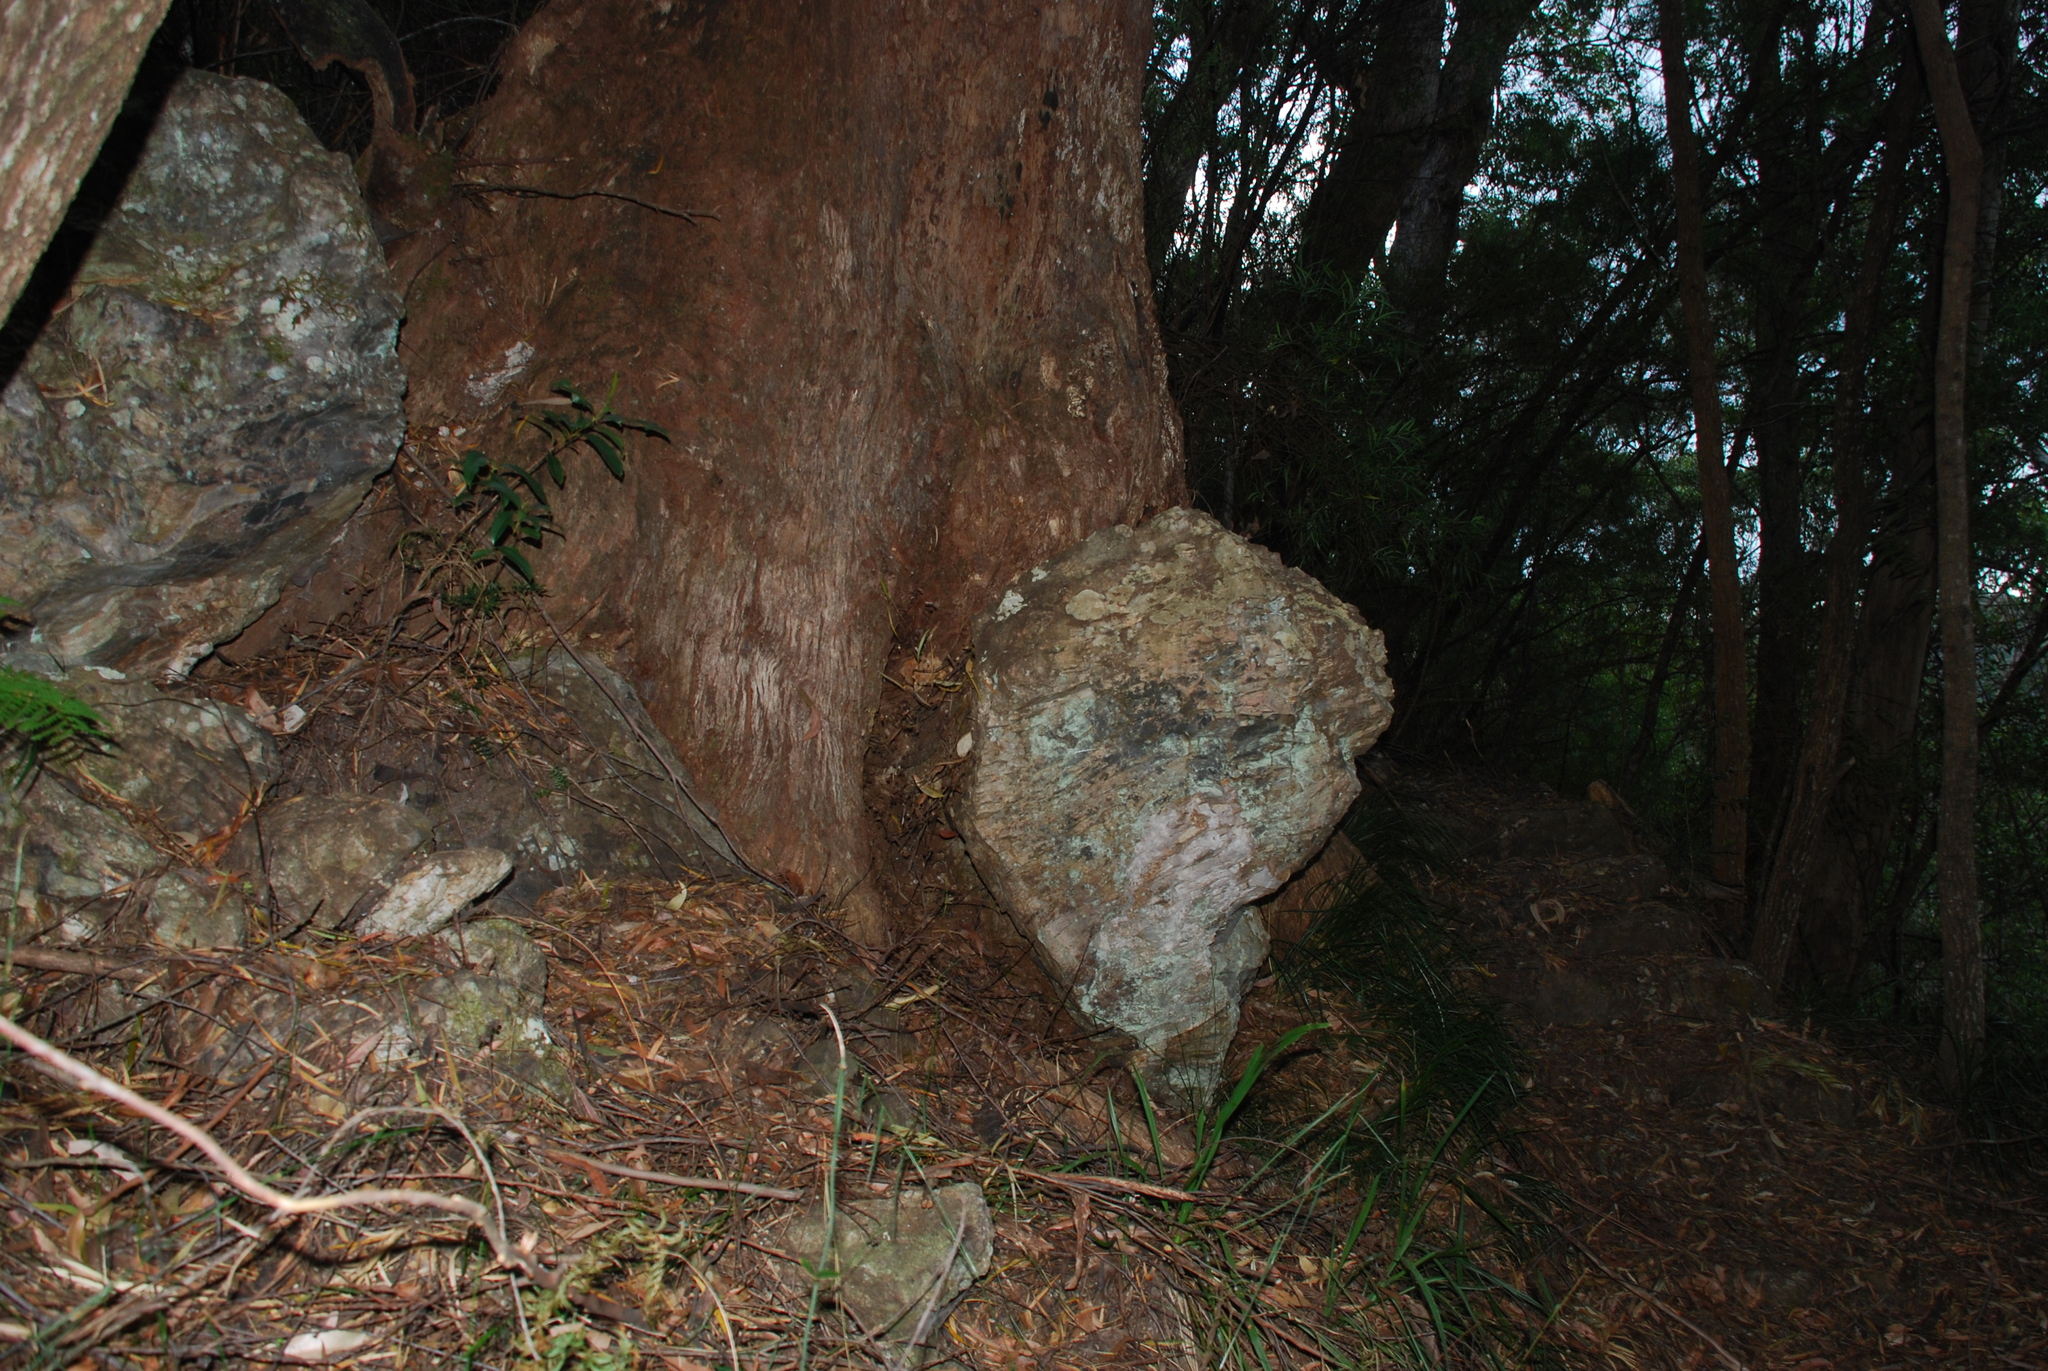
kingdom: Plantae
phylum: Tracheophyta
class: Magnoliopsida
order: Myrtales
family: Myrtaceae
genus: Eucalyptus
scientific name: Eucalyptus andrewsii
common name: New england blackbutt
